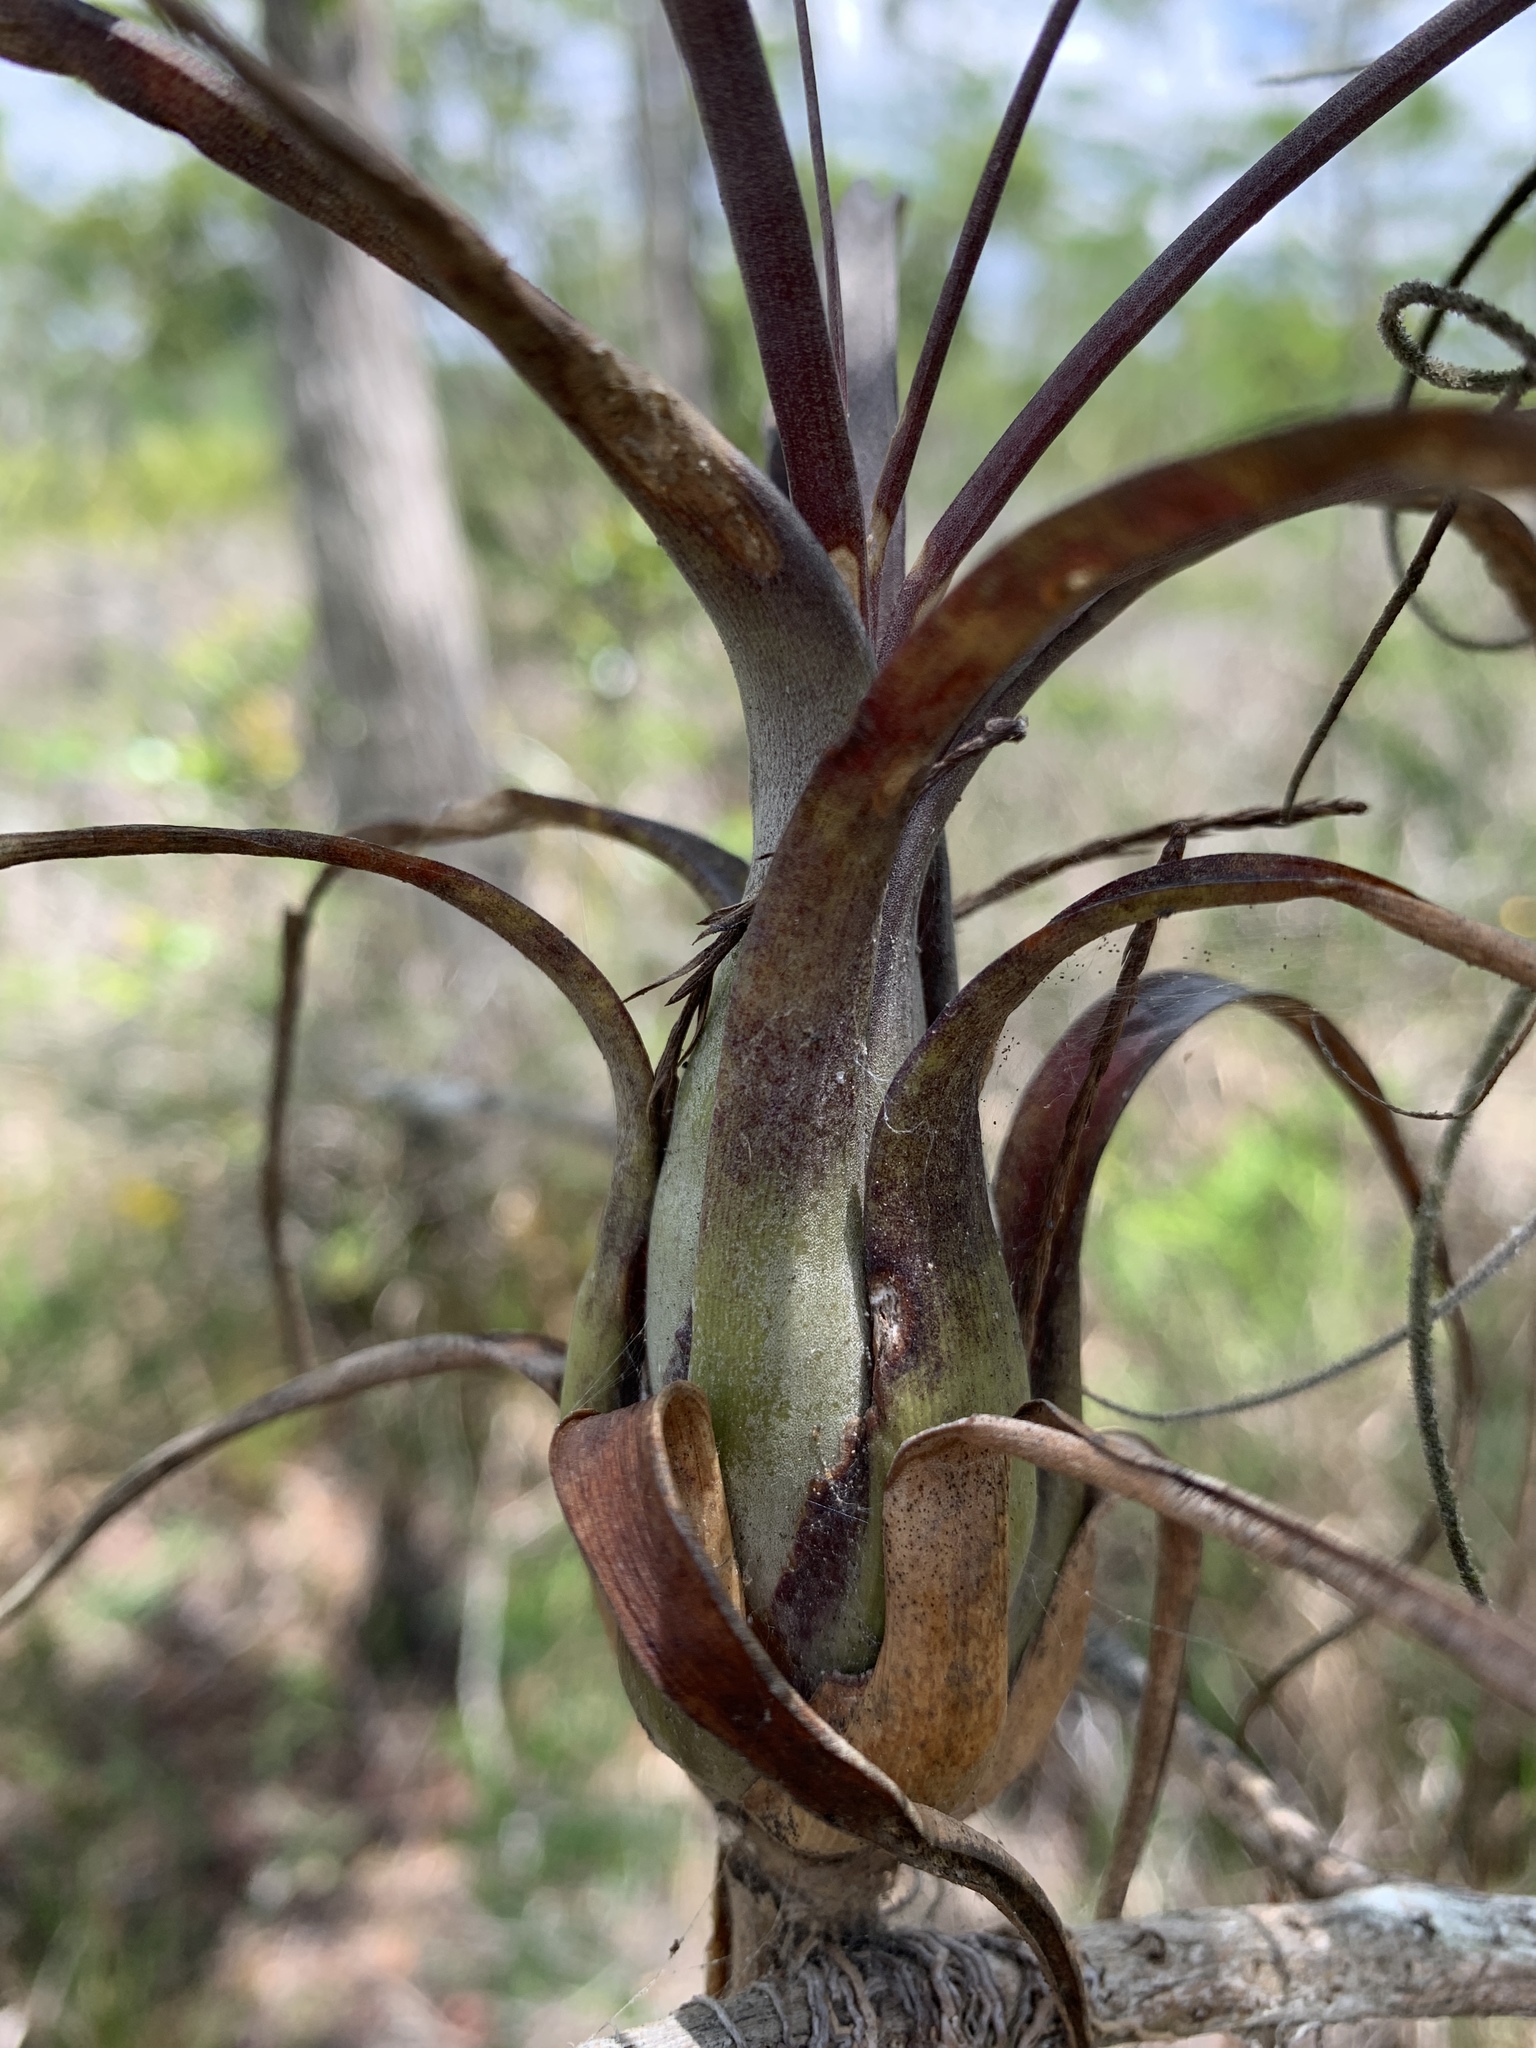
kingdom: Plantae
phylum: Tracheophyta
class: Liliopsida
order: Poales
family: Bromeliaceae
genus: Tillandsia
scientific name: Tillandsia balbisiana
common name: Northern needleleaf
